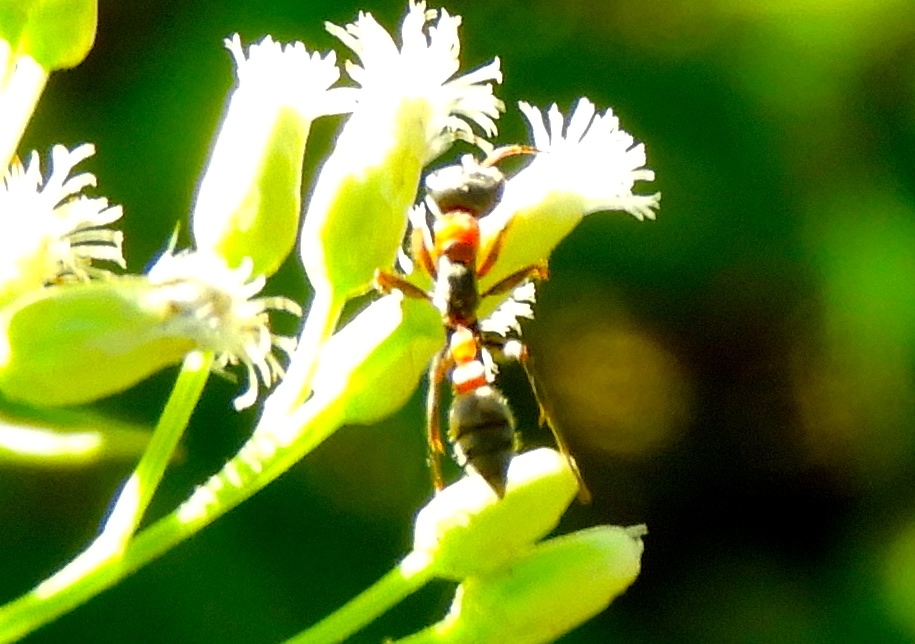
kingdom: Animalia
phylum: Arthropoda
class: Insecta
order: Hymenoptera
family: Formicidae
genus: Pseudomyrmex
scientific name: Pseudomyrmex gracilis
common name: Graceful twig ant
